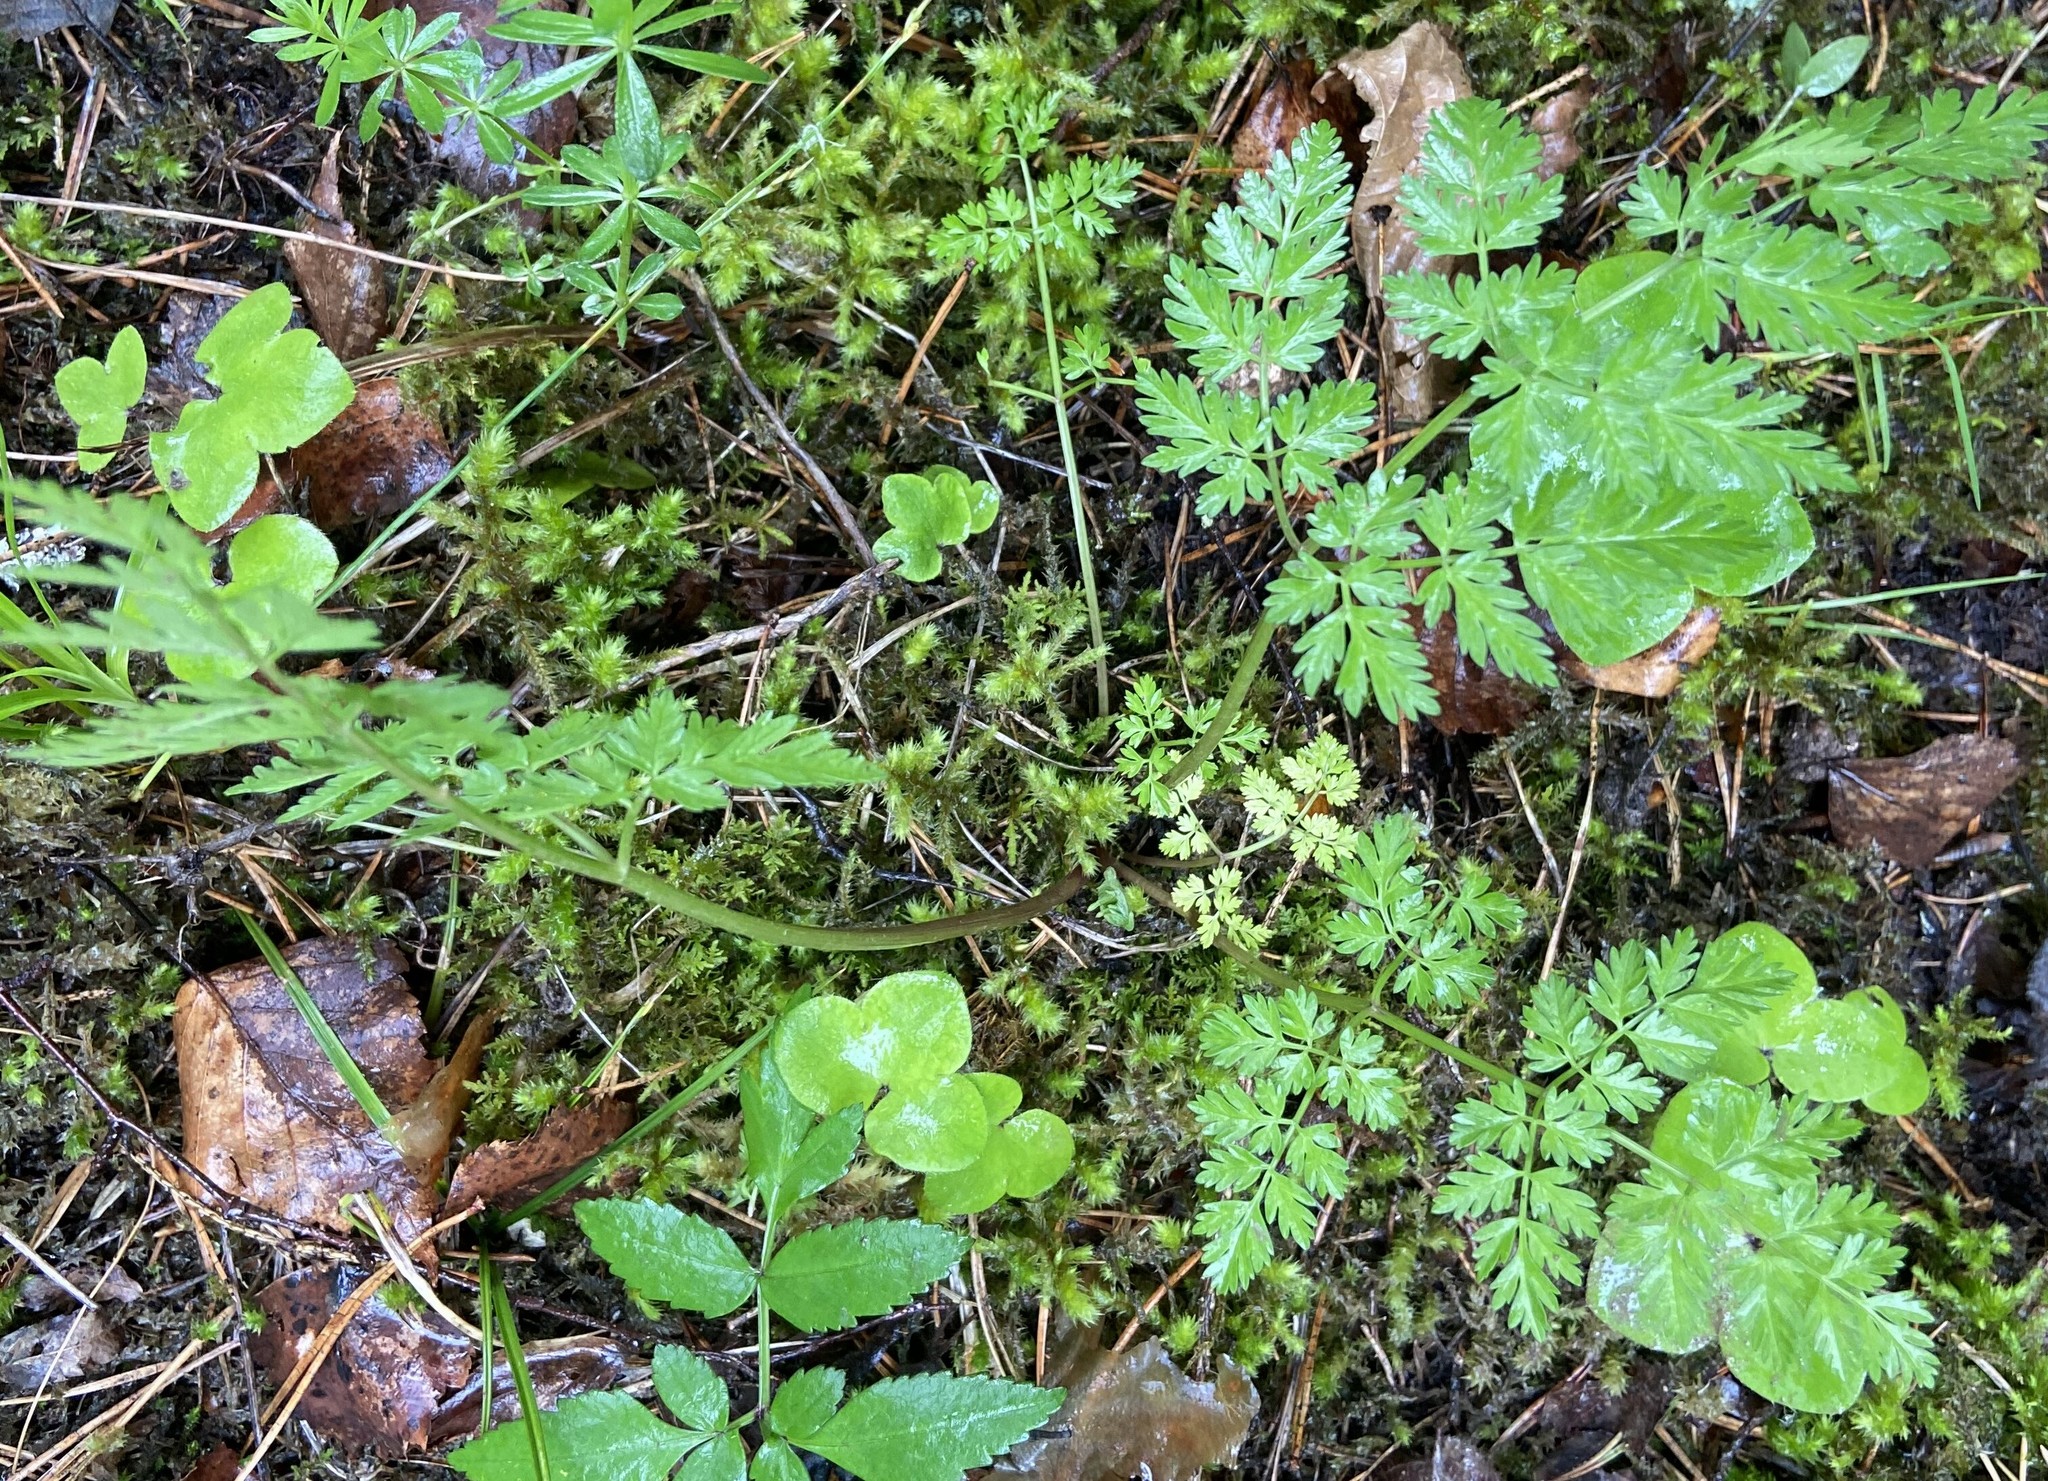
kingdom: Plantae
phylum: Tracheophyta
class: Magnoliopsida
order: Apiales
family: Apiaceae
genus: Anthriscus
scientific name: Anthriscus sylvestris
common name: Cow parsley
